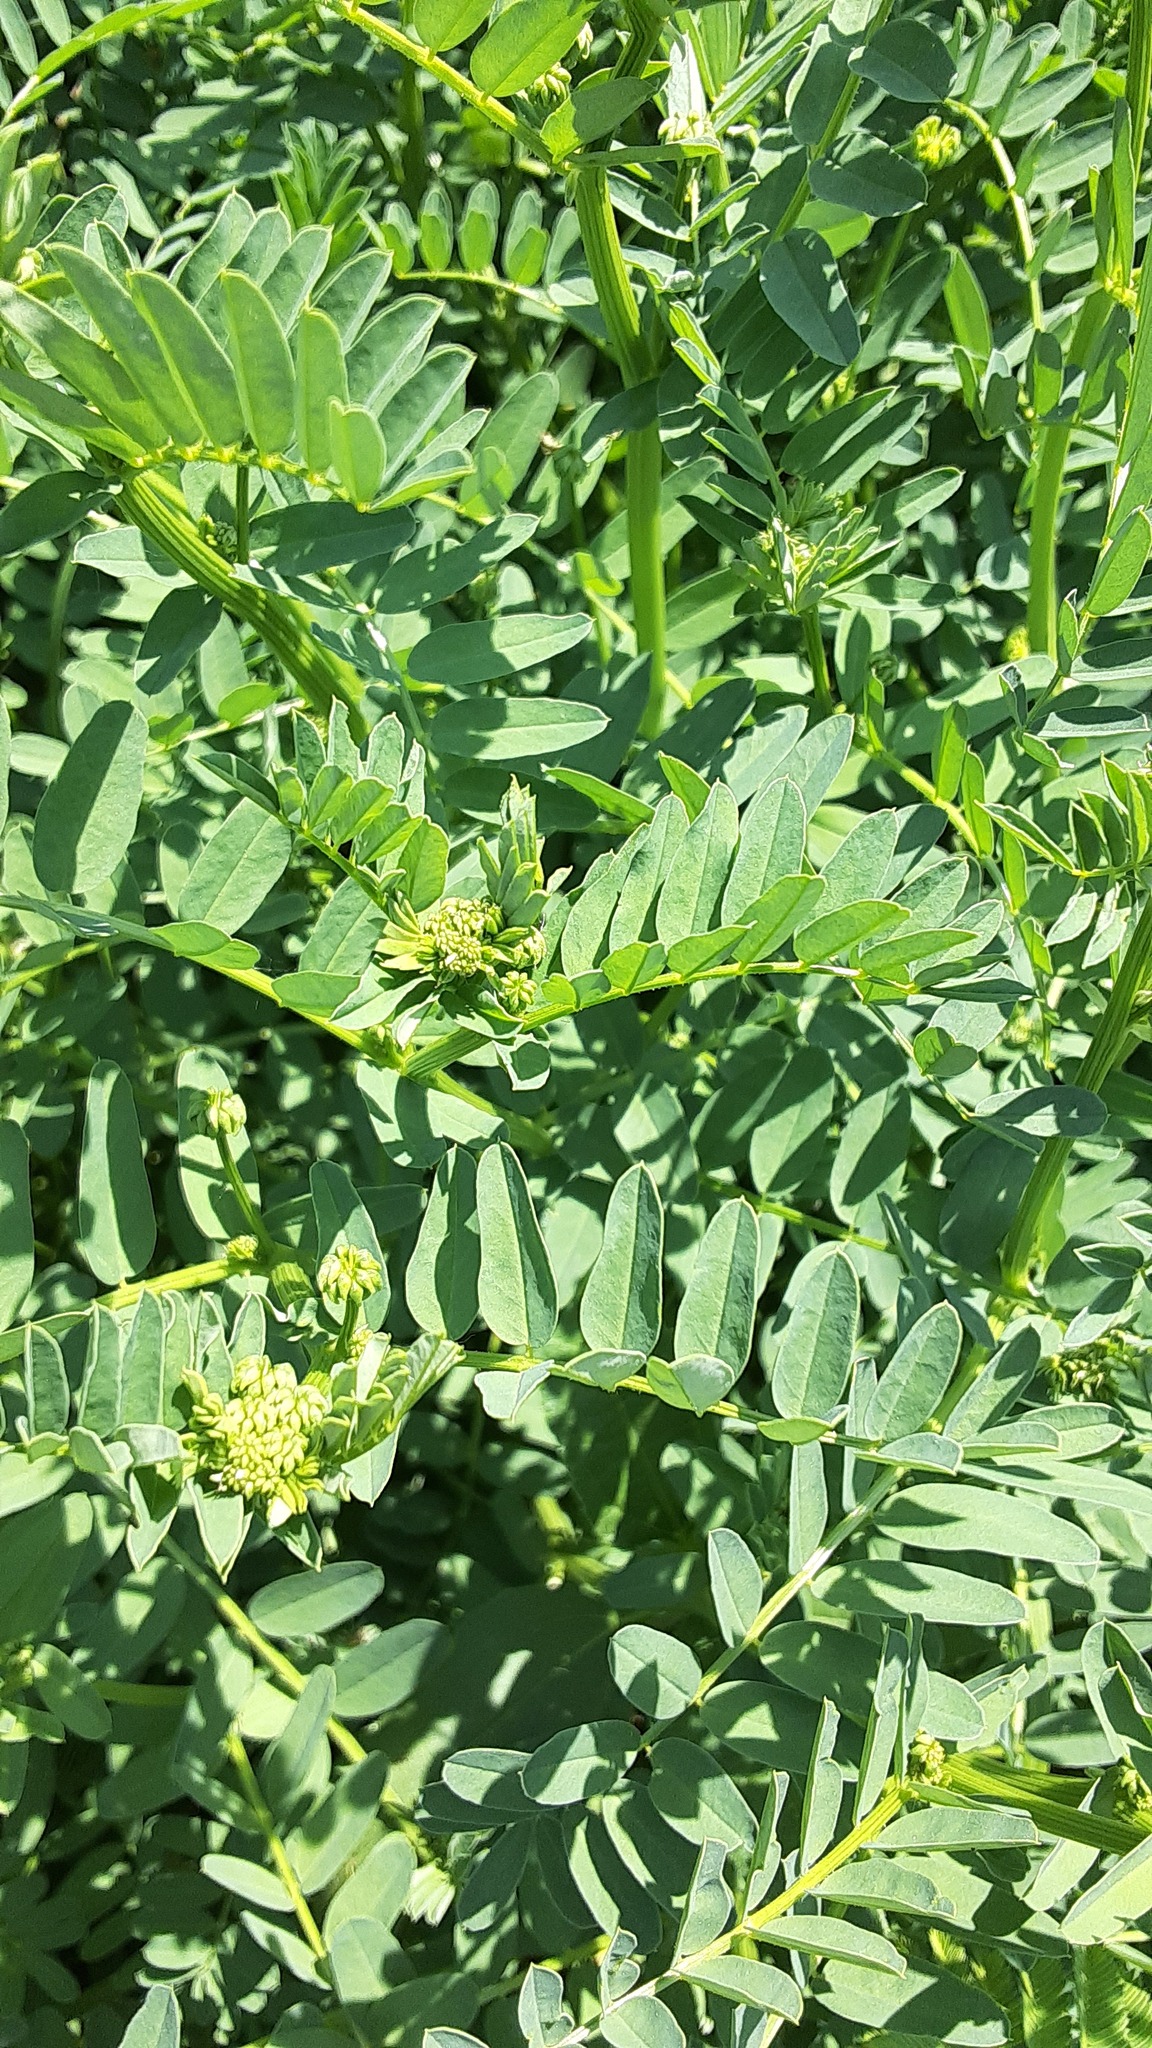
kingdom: Plantae
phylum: Tracheophyta
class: Magnoliopsida
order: Fabales
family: Fabaceae
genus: Coronilla
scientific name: Coronilla varia
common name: Crownvetch
